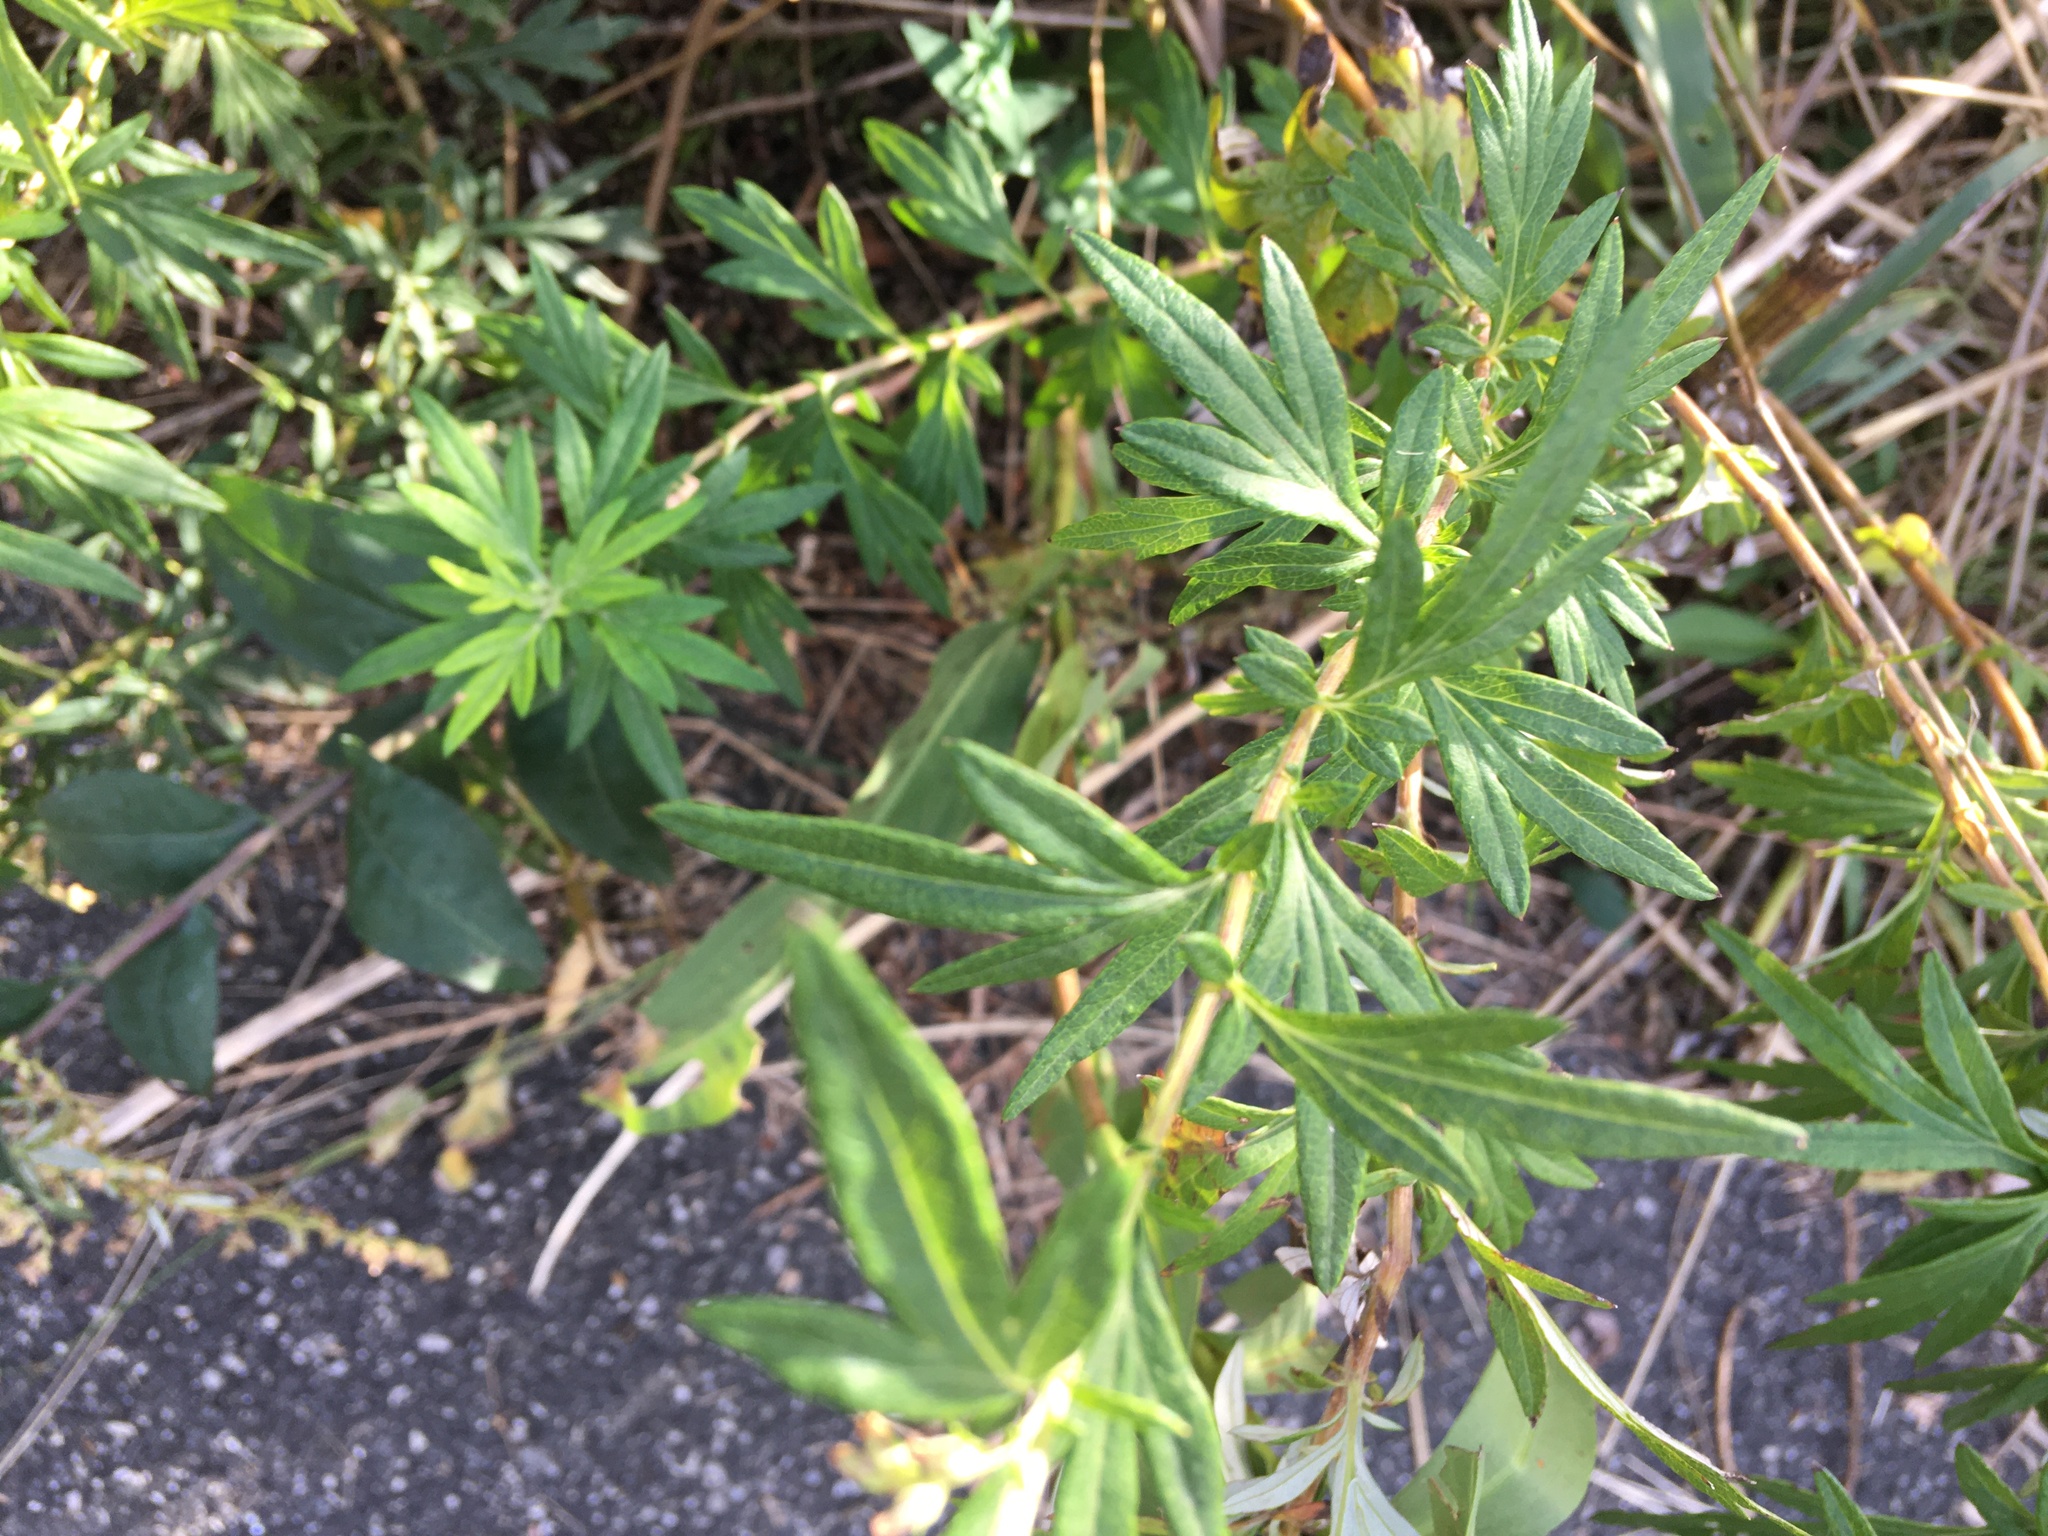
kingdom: Plantae
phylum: Tracheophyta
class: Magnoliopsida
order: Asterales
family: Asteraceae
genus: Artemisia
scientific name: Artemisia vulgaris
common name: Mugwort
